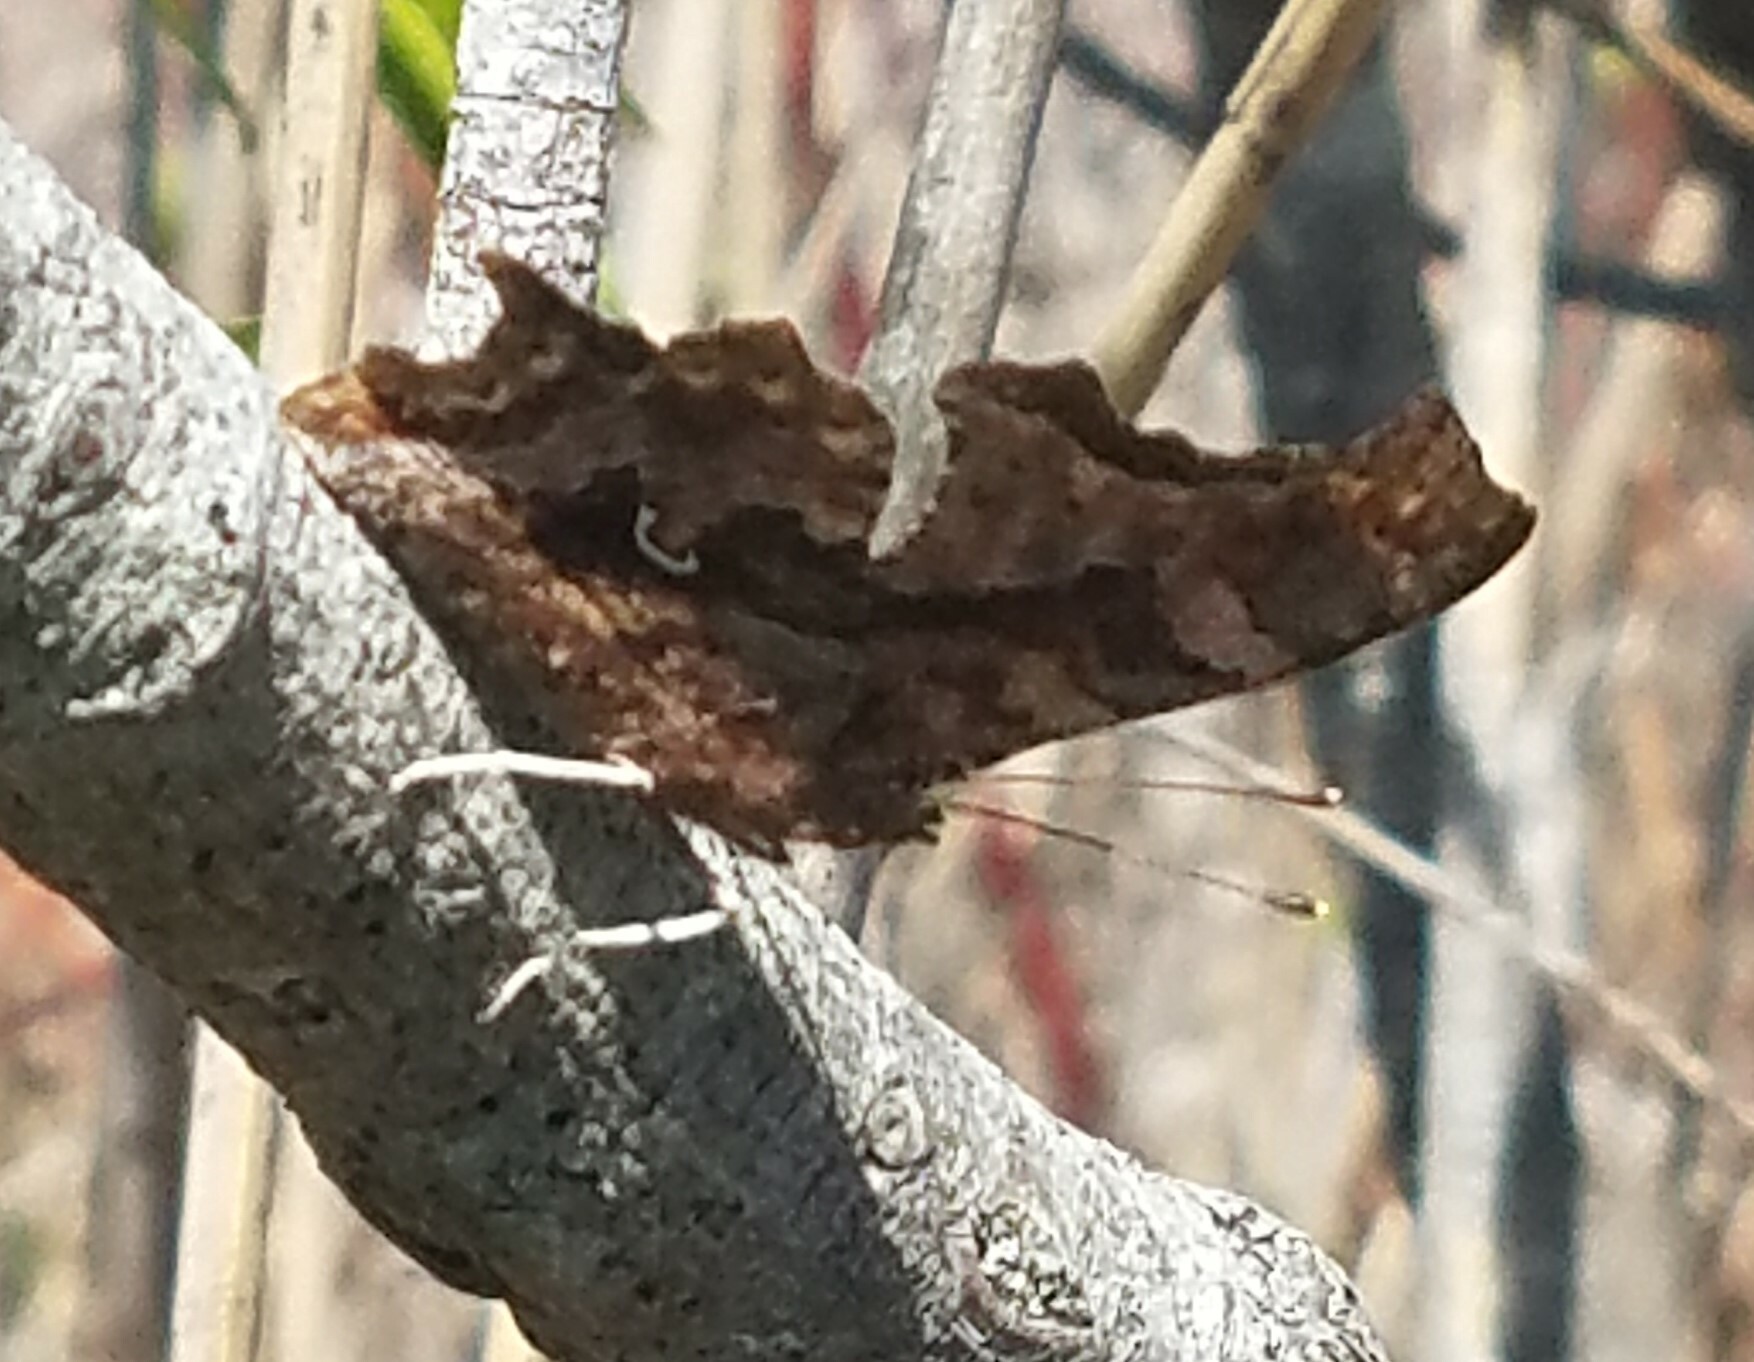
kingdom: Animalia
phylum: Arthropoda
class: Insecta
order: Lepidoptera
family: Nymphalidae
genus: Polygonia
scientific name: Polygonia comma
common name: Eastern comma
